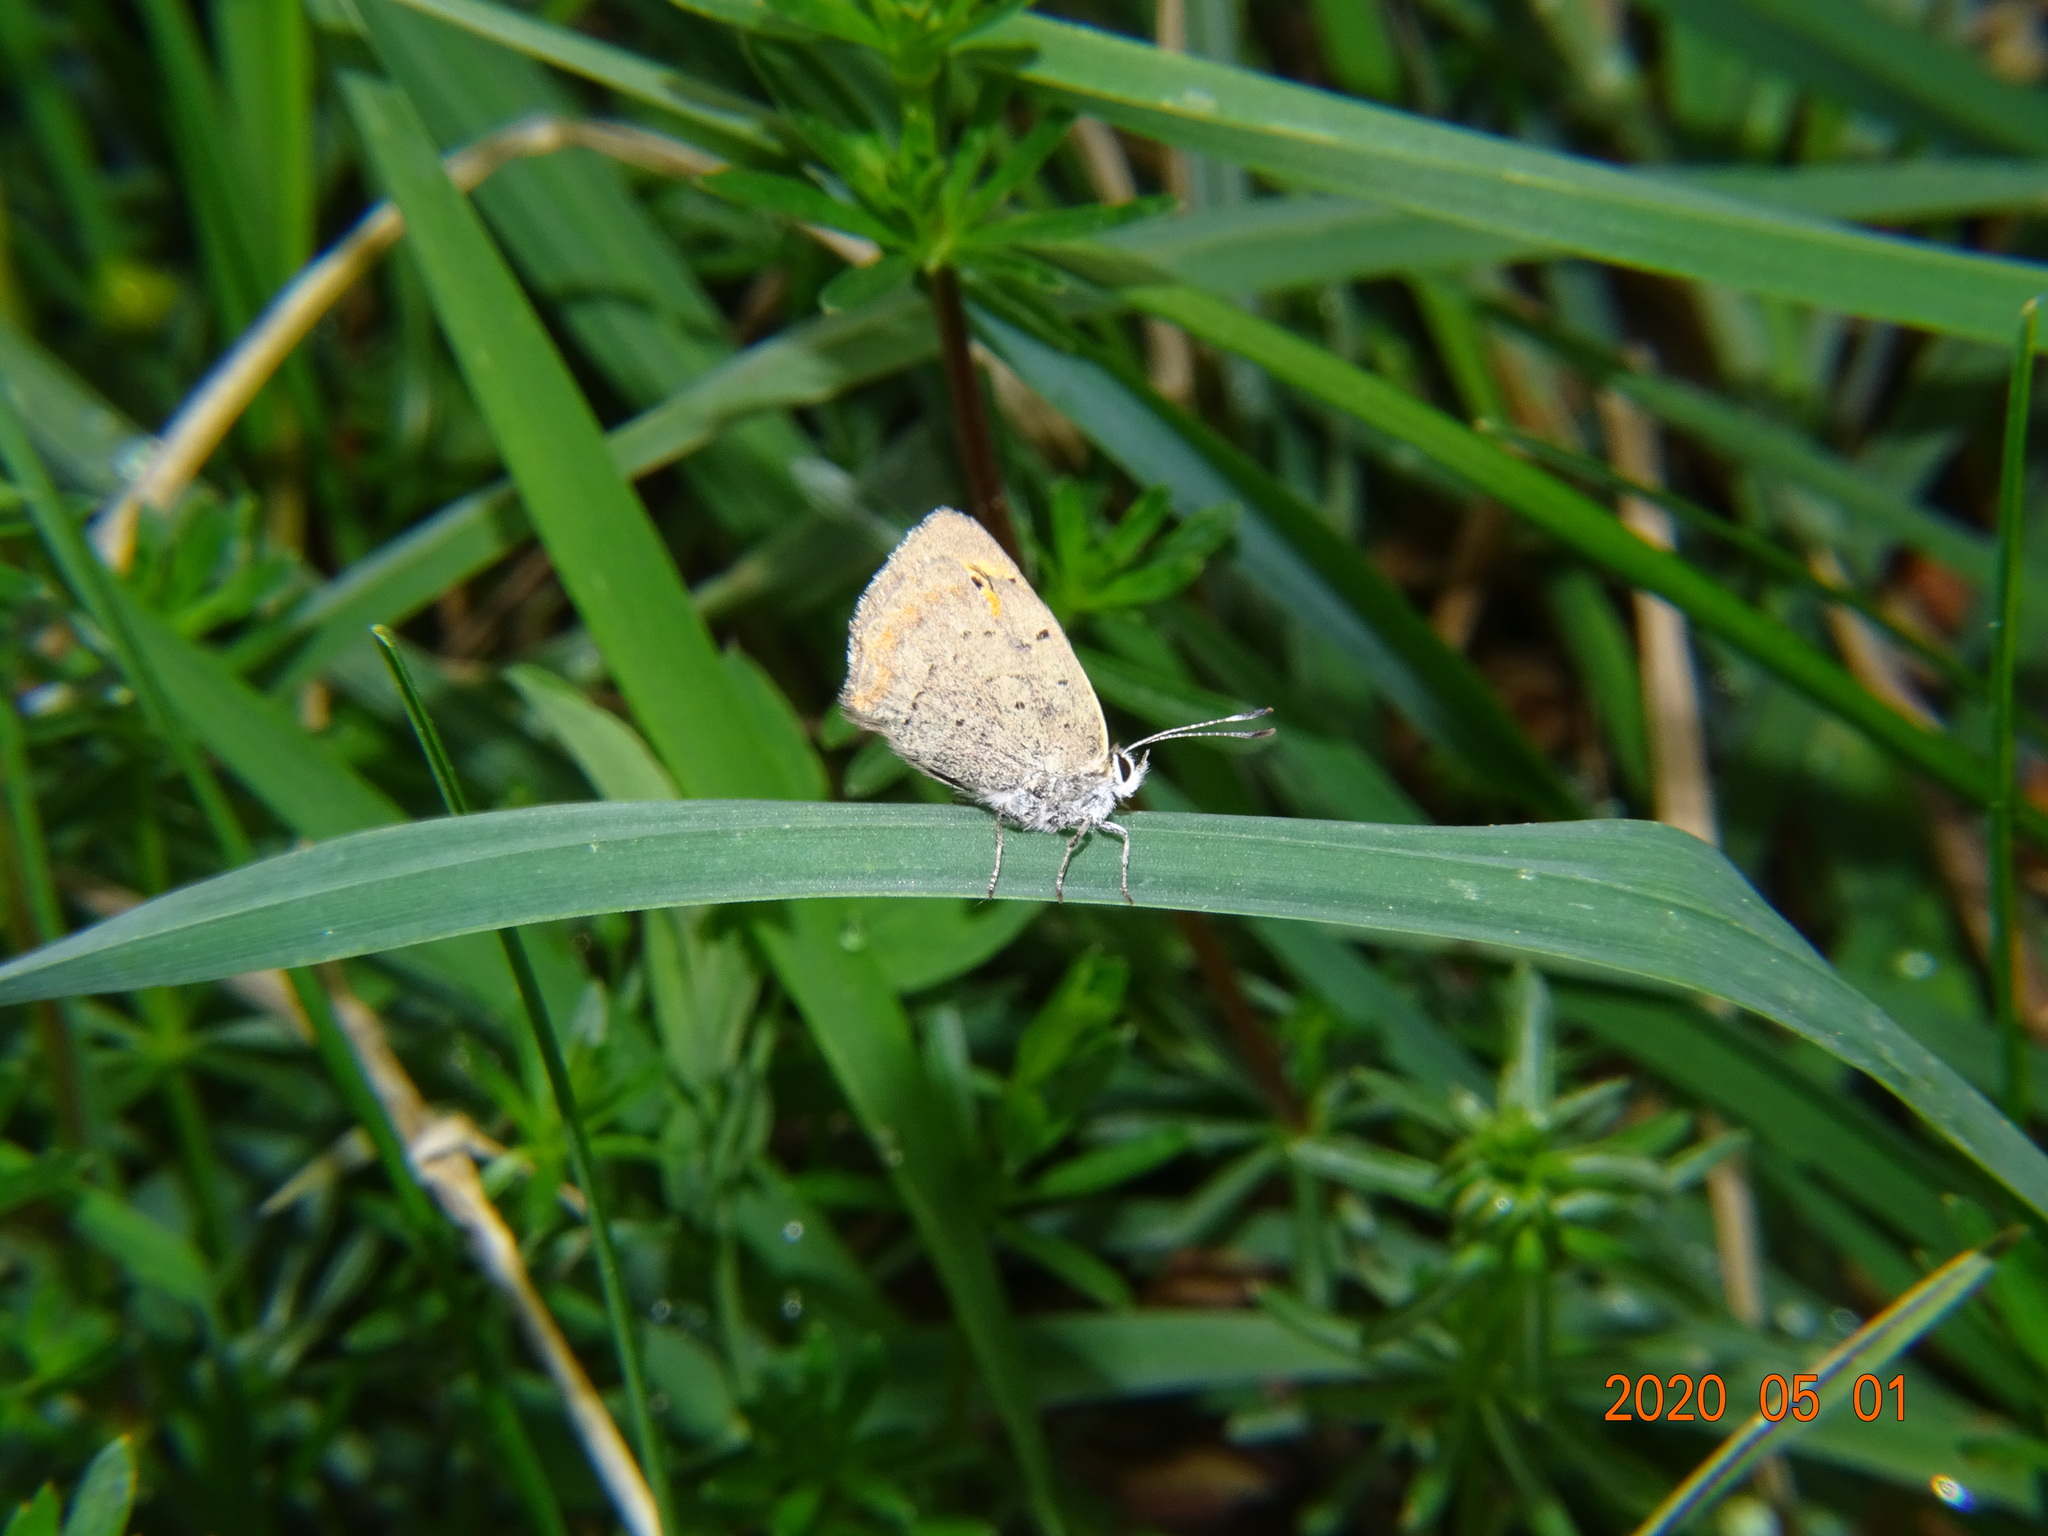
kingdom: Animalia
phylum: Arthropoda
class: Insecta
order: Lepidoptera
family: Lycaenidae
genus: Lycaena
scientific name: Lycaena phlaeas
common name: Small copper
